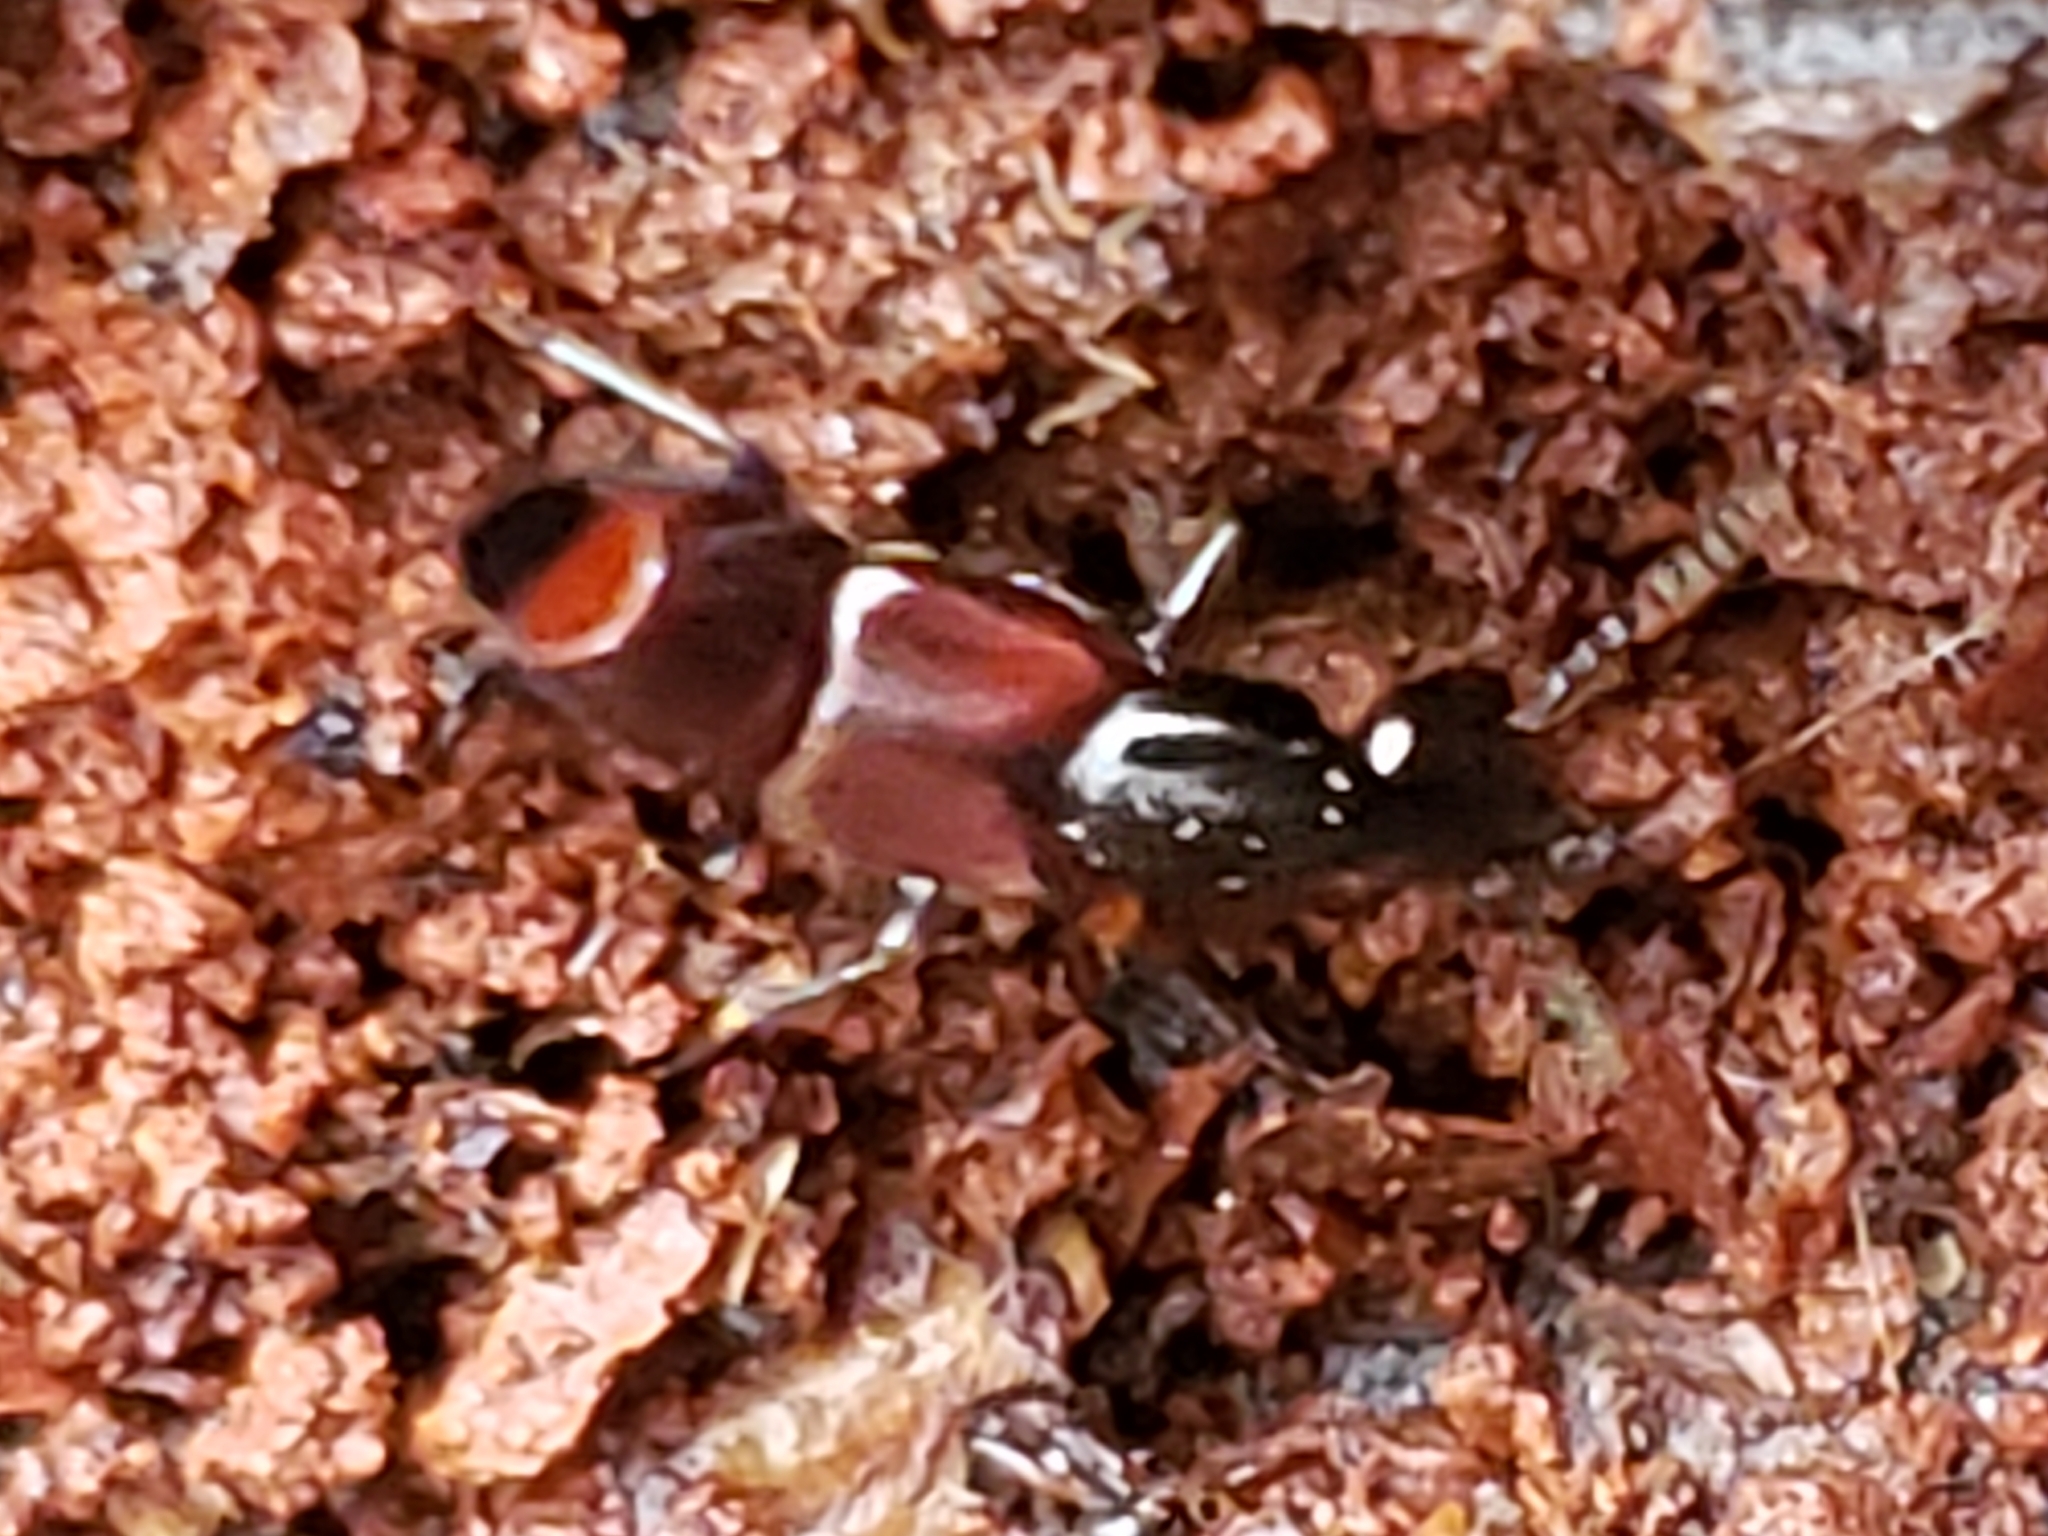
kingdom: Animalia
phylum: Arthropoda
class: Insecta
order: Coleoptera
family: Staphylinidae
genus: Hesperus
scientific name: Hesperus baltimorensis
